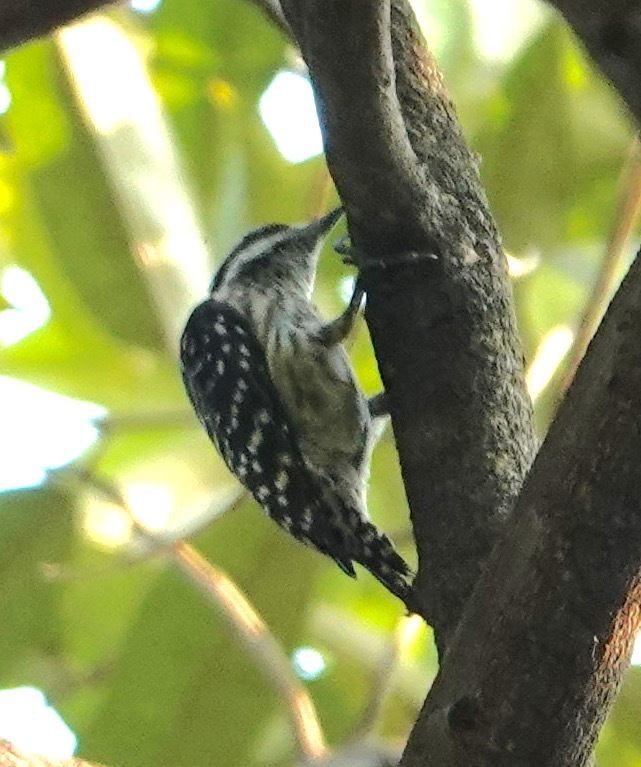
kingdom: Animalia
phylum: Chordata
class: Aves
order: Piciformes
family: Picidae
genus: Yungipicus
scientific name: Yungipicus moluccensis
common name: Sunda pygmy woodpecker
